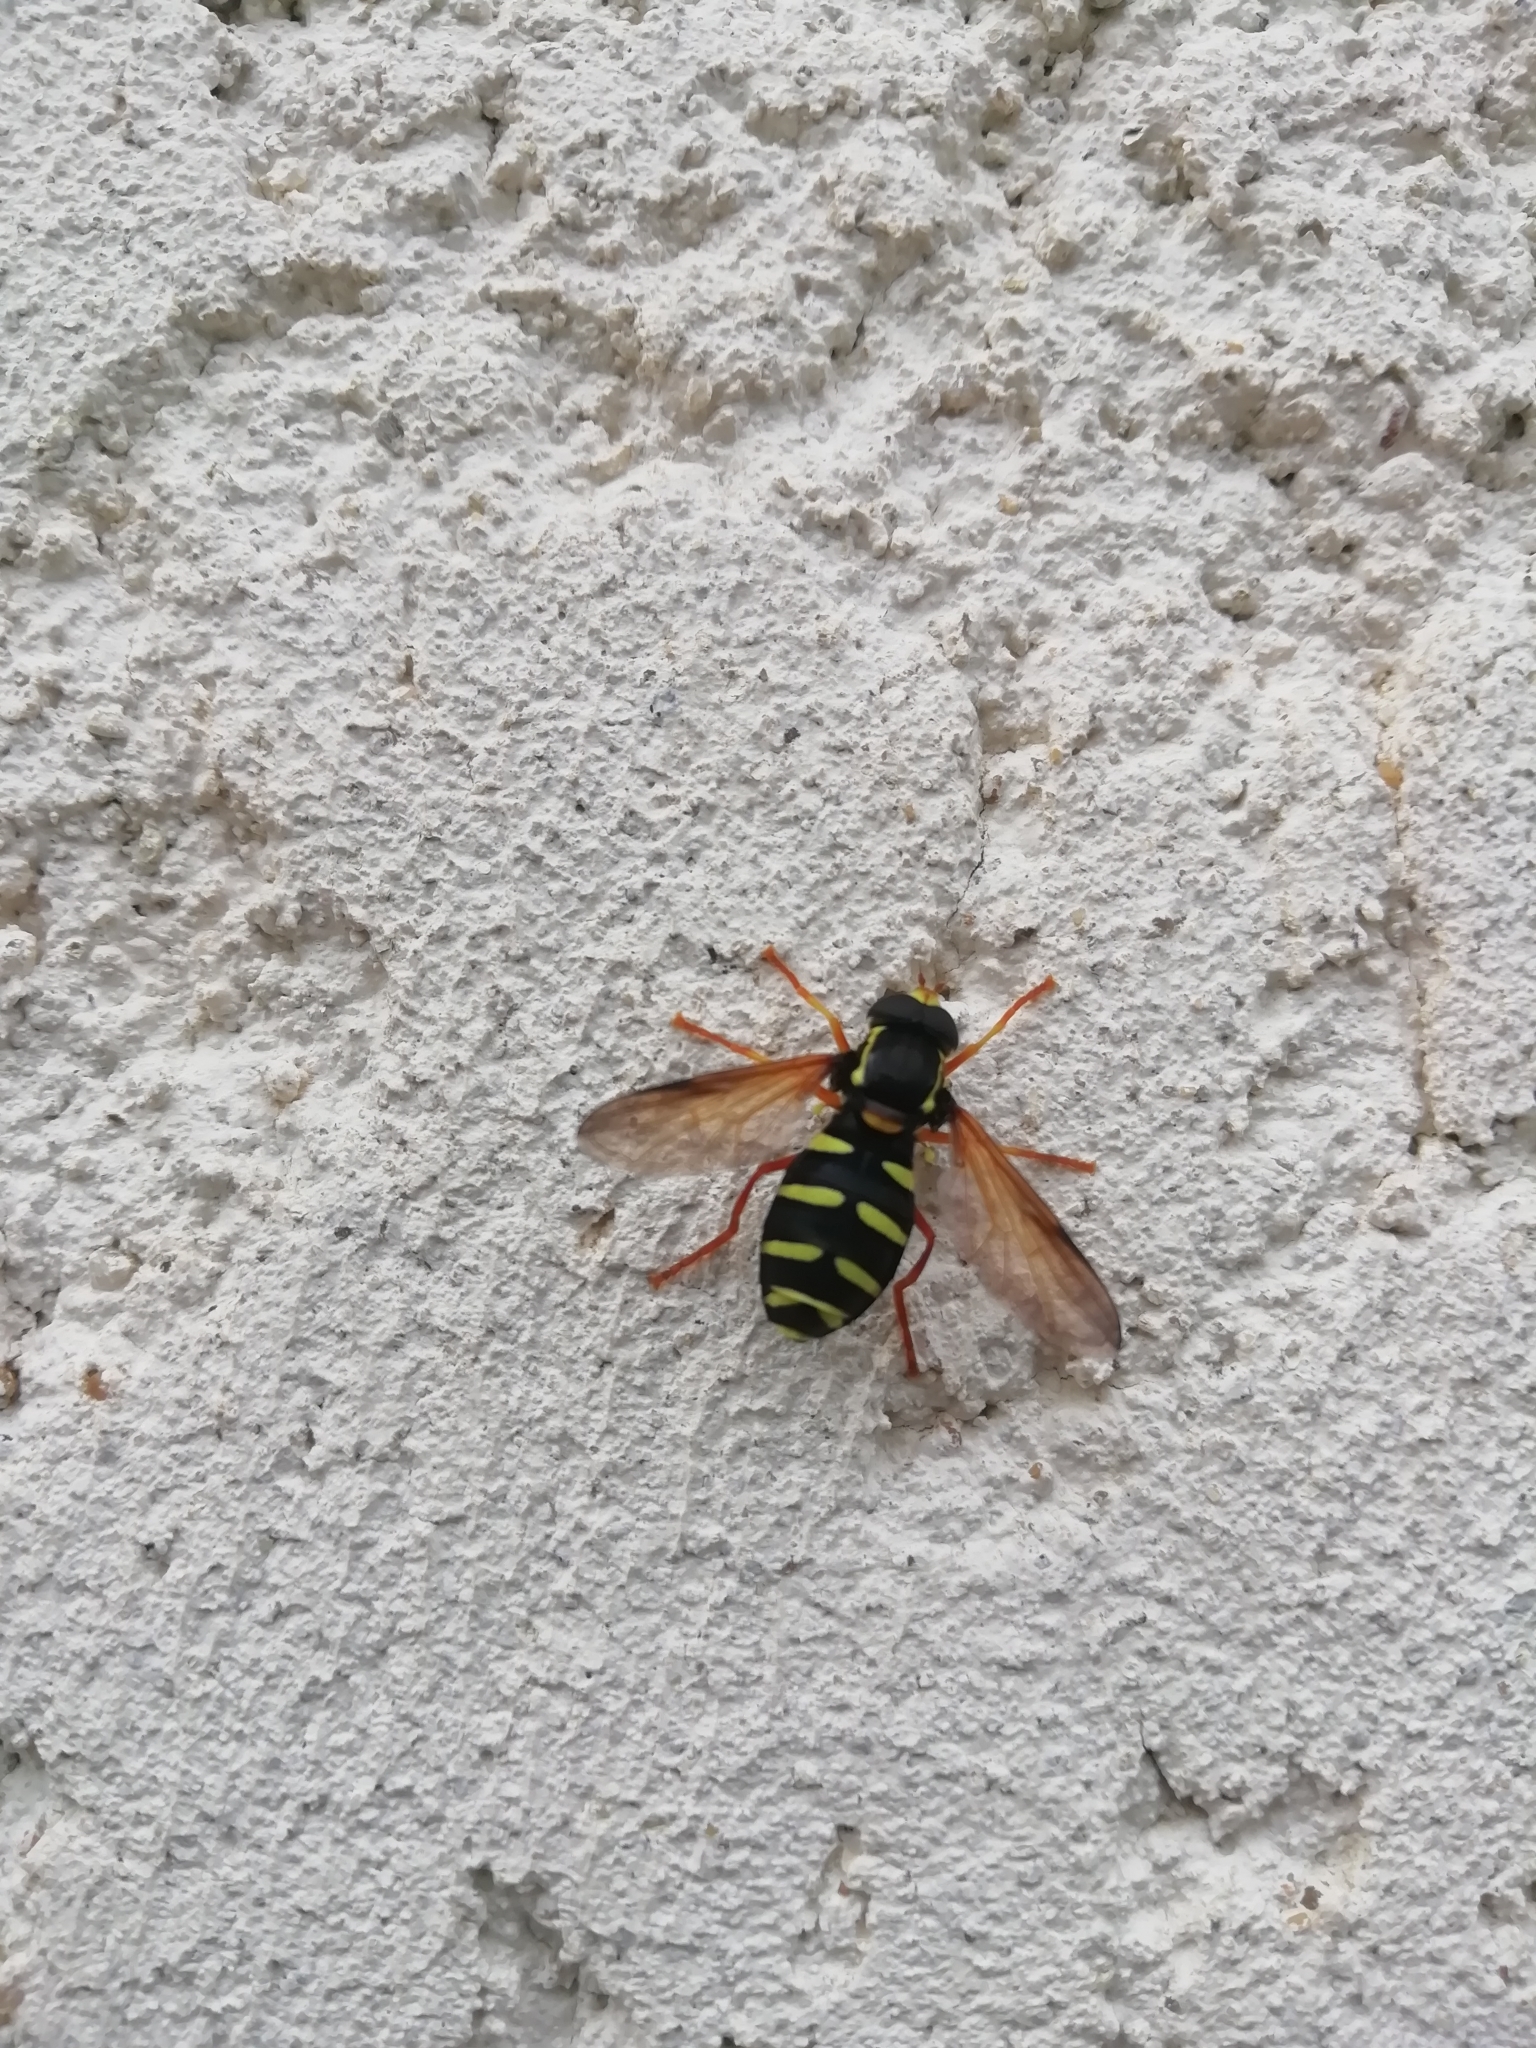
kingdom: Animalia
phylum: Arthropoda
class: Insecta
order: Diptera
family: Syrphidae
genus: Philhelius
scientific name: Philhelius citrofasciata
